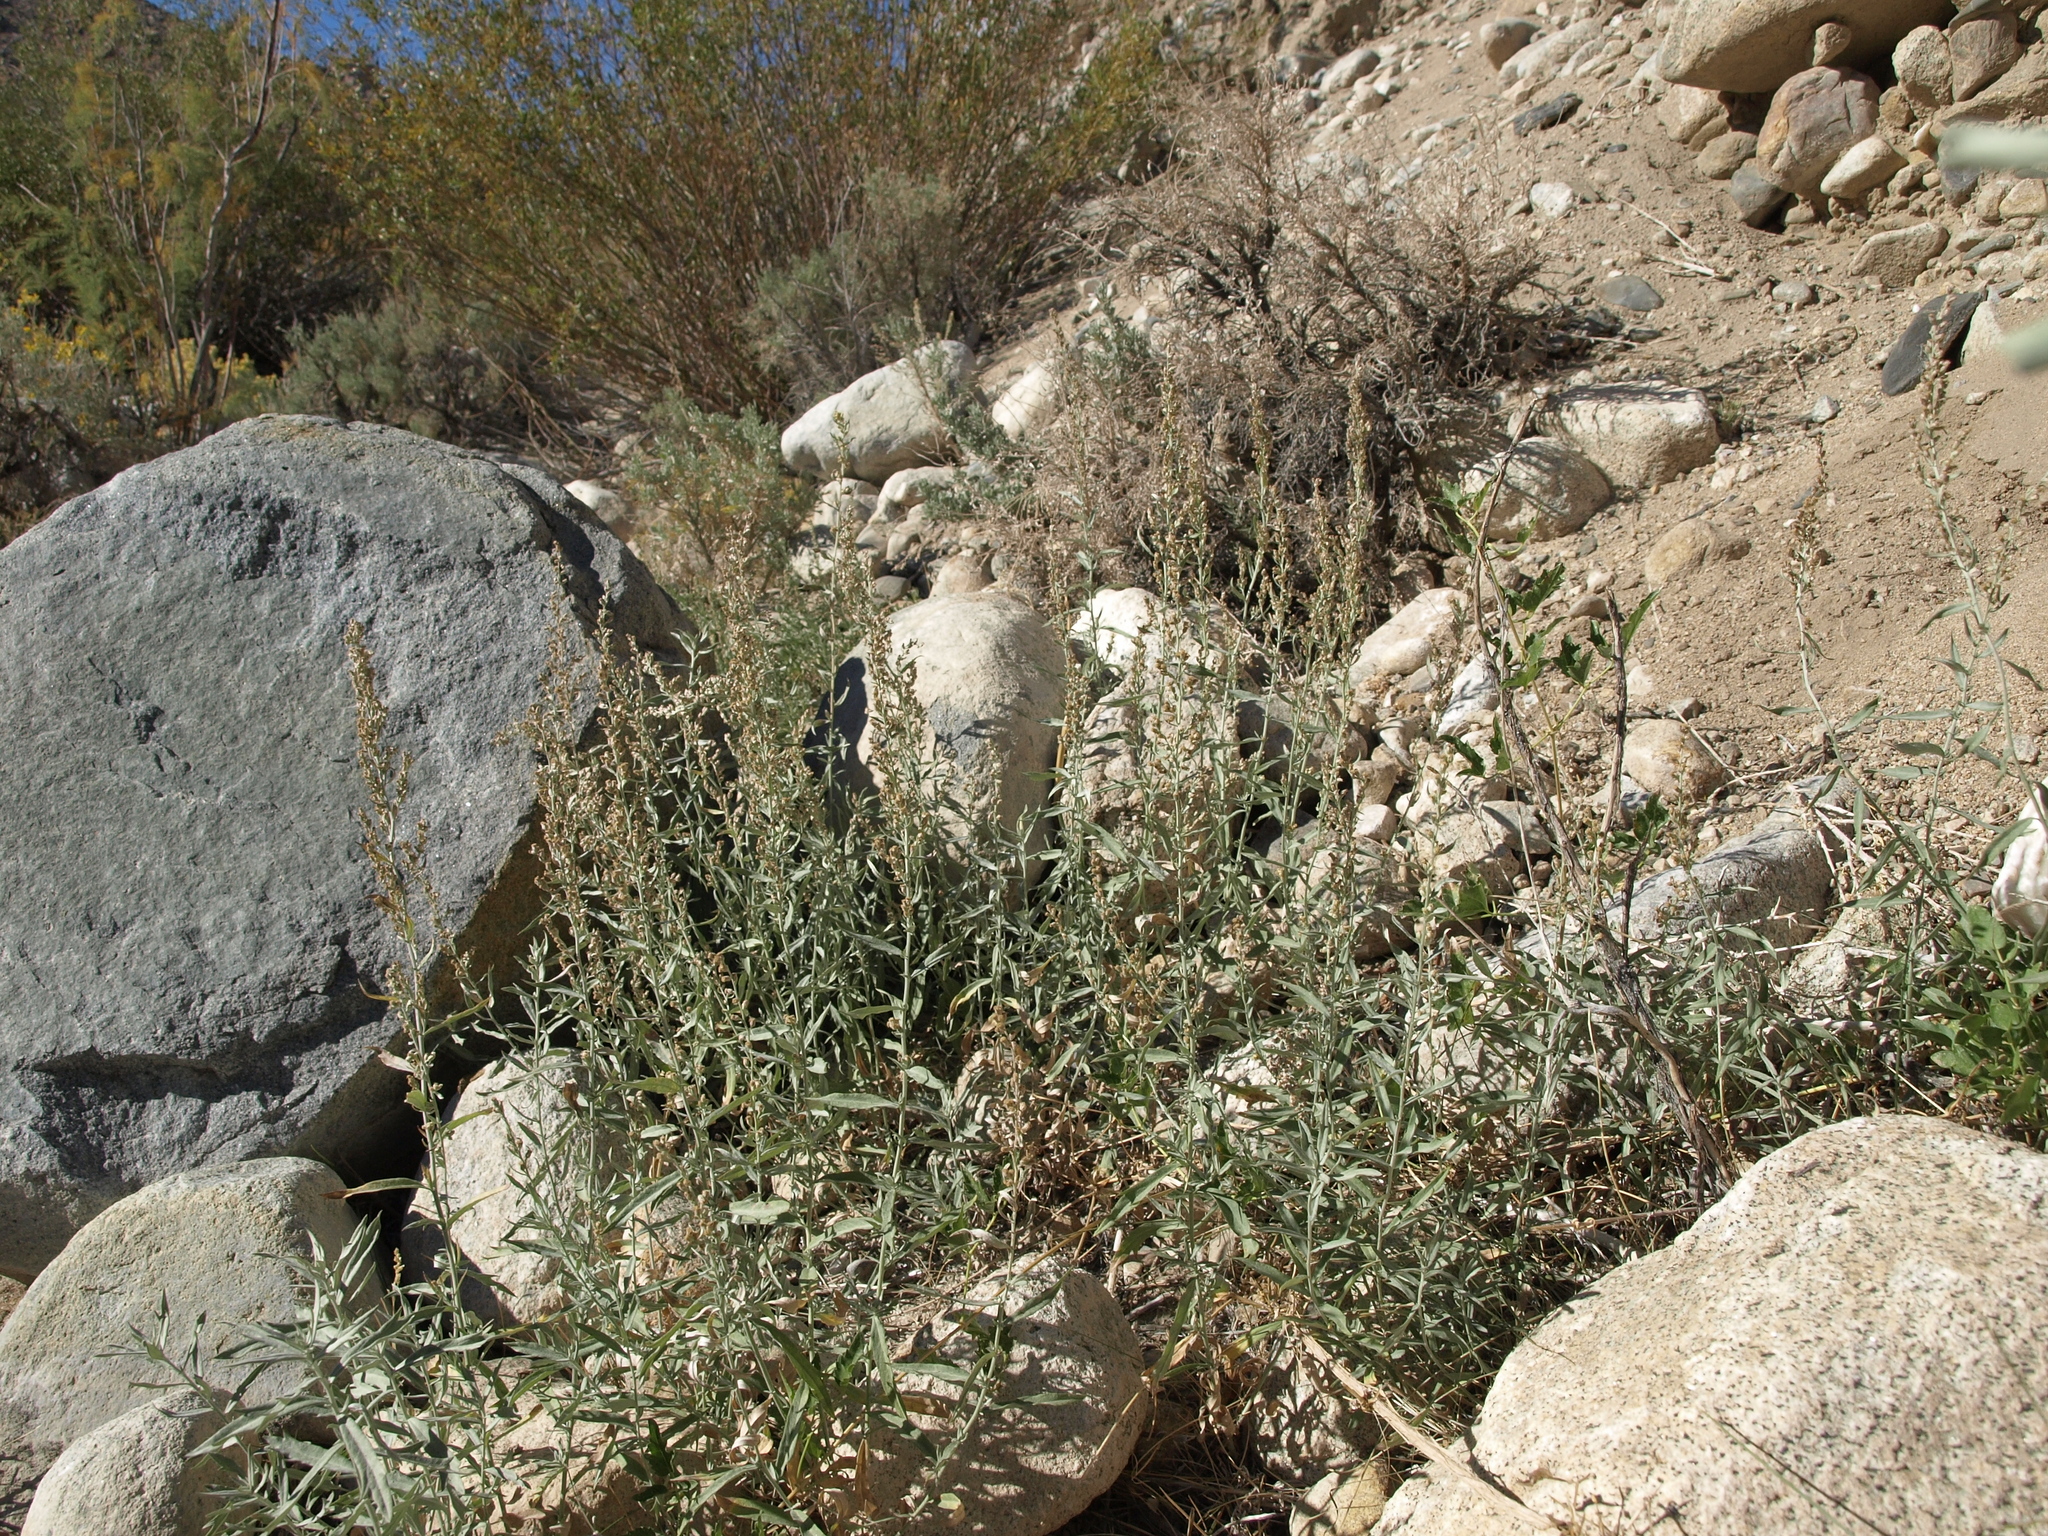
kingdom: Plantae
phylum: Tracheophyta
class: Magnoliopsida
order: Asterales
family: Asteraceae
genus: Artemisia
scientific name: Artemisia ludoviciana
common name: Western mugwort
